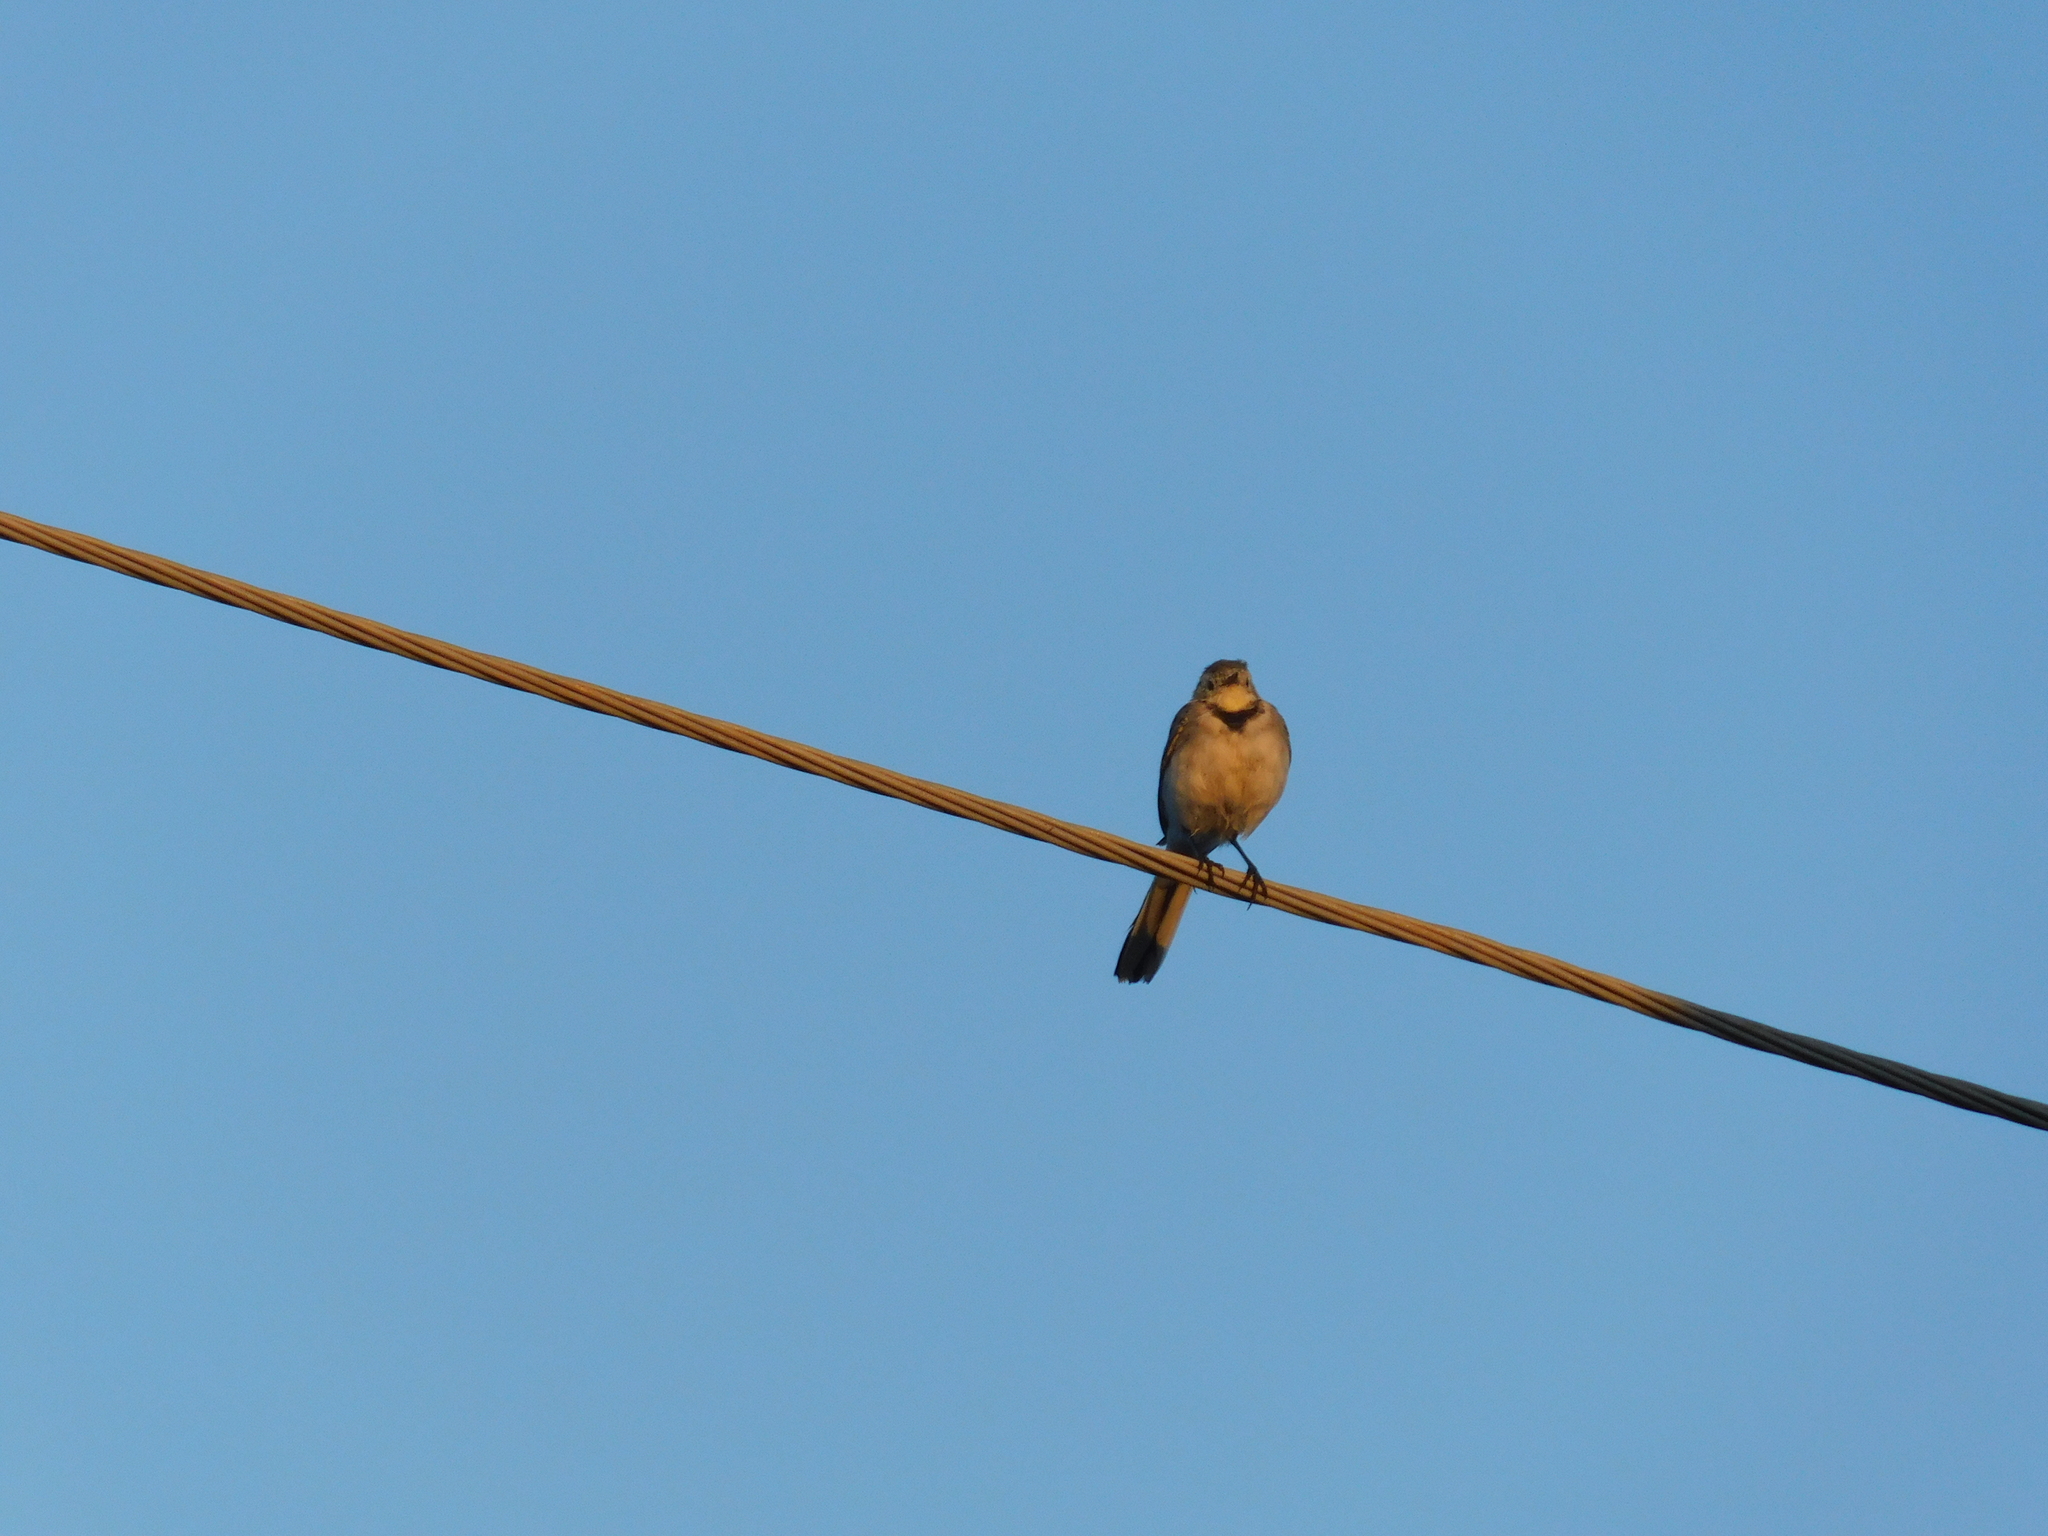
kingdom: Animalia
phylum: Chordata
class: Aves
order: Passeriformes
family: Motacillidae
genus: Motacilla
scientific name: Motacilla alba
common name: White wagtail
